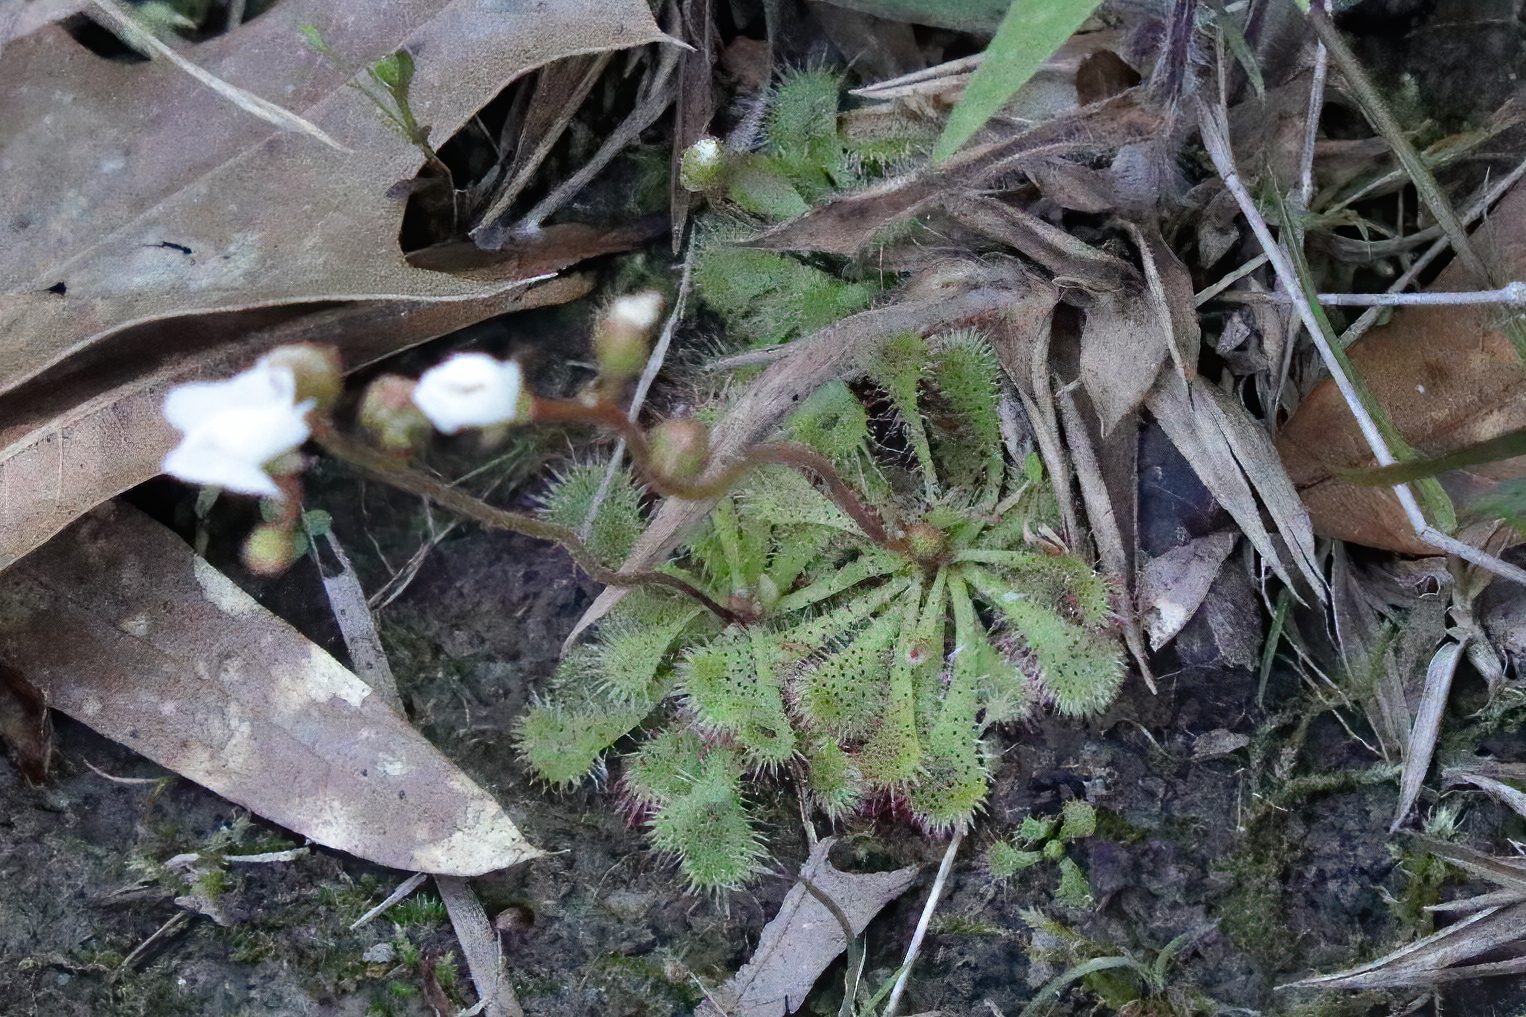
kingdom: Plantae
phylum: Tracheophyta
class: Magnoliopsida
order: Caryophyllales
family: Droseraceae
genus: Drosera
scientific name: Drosera brevifolia
